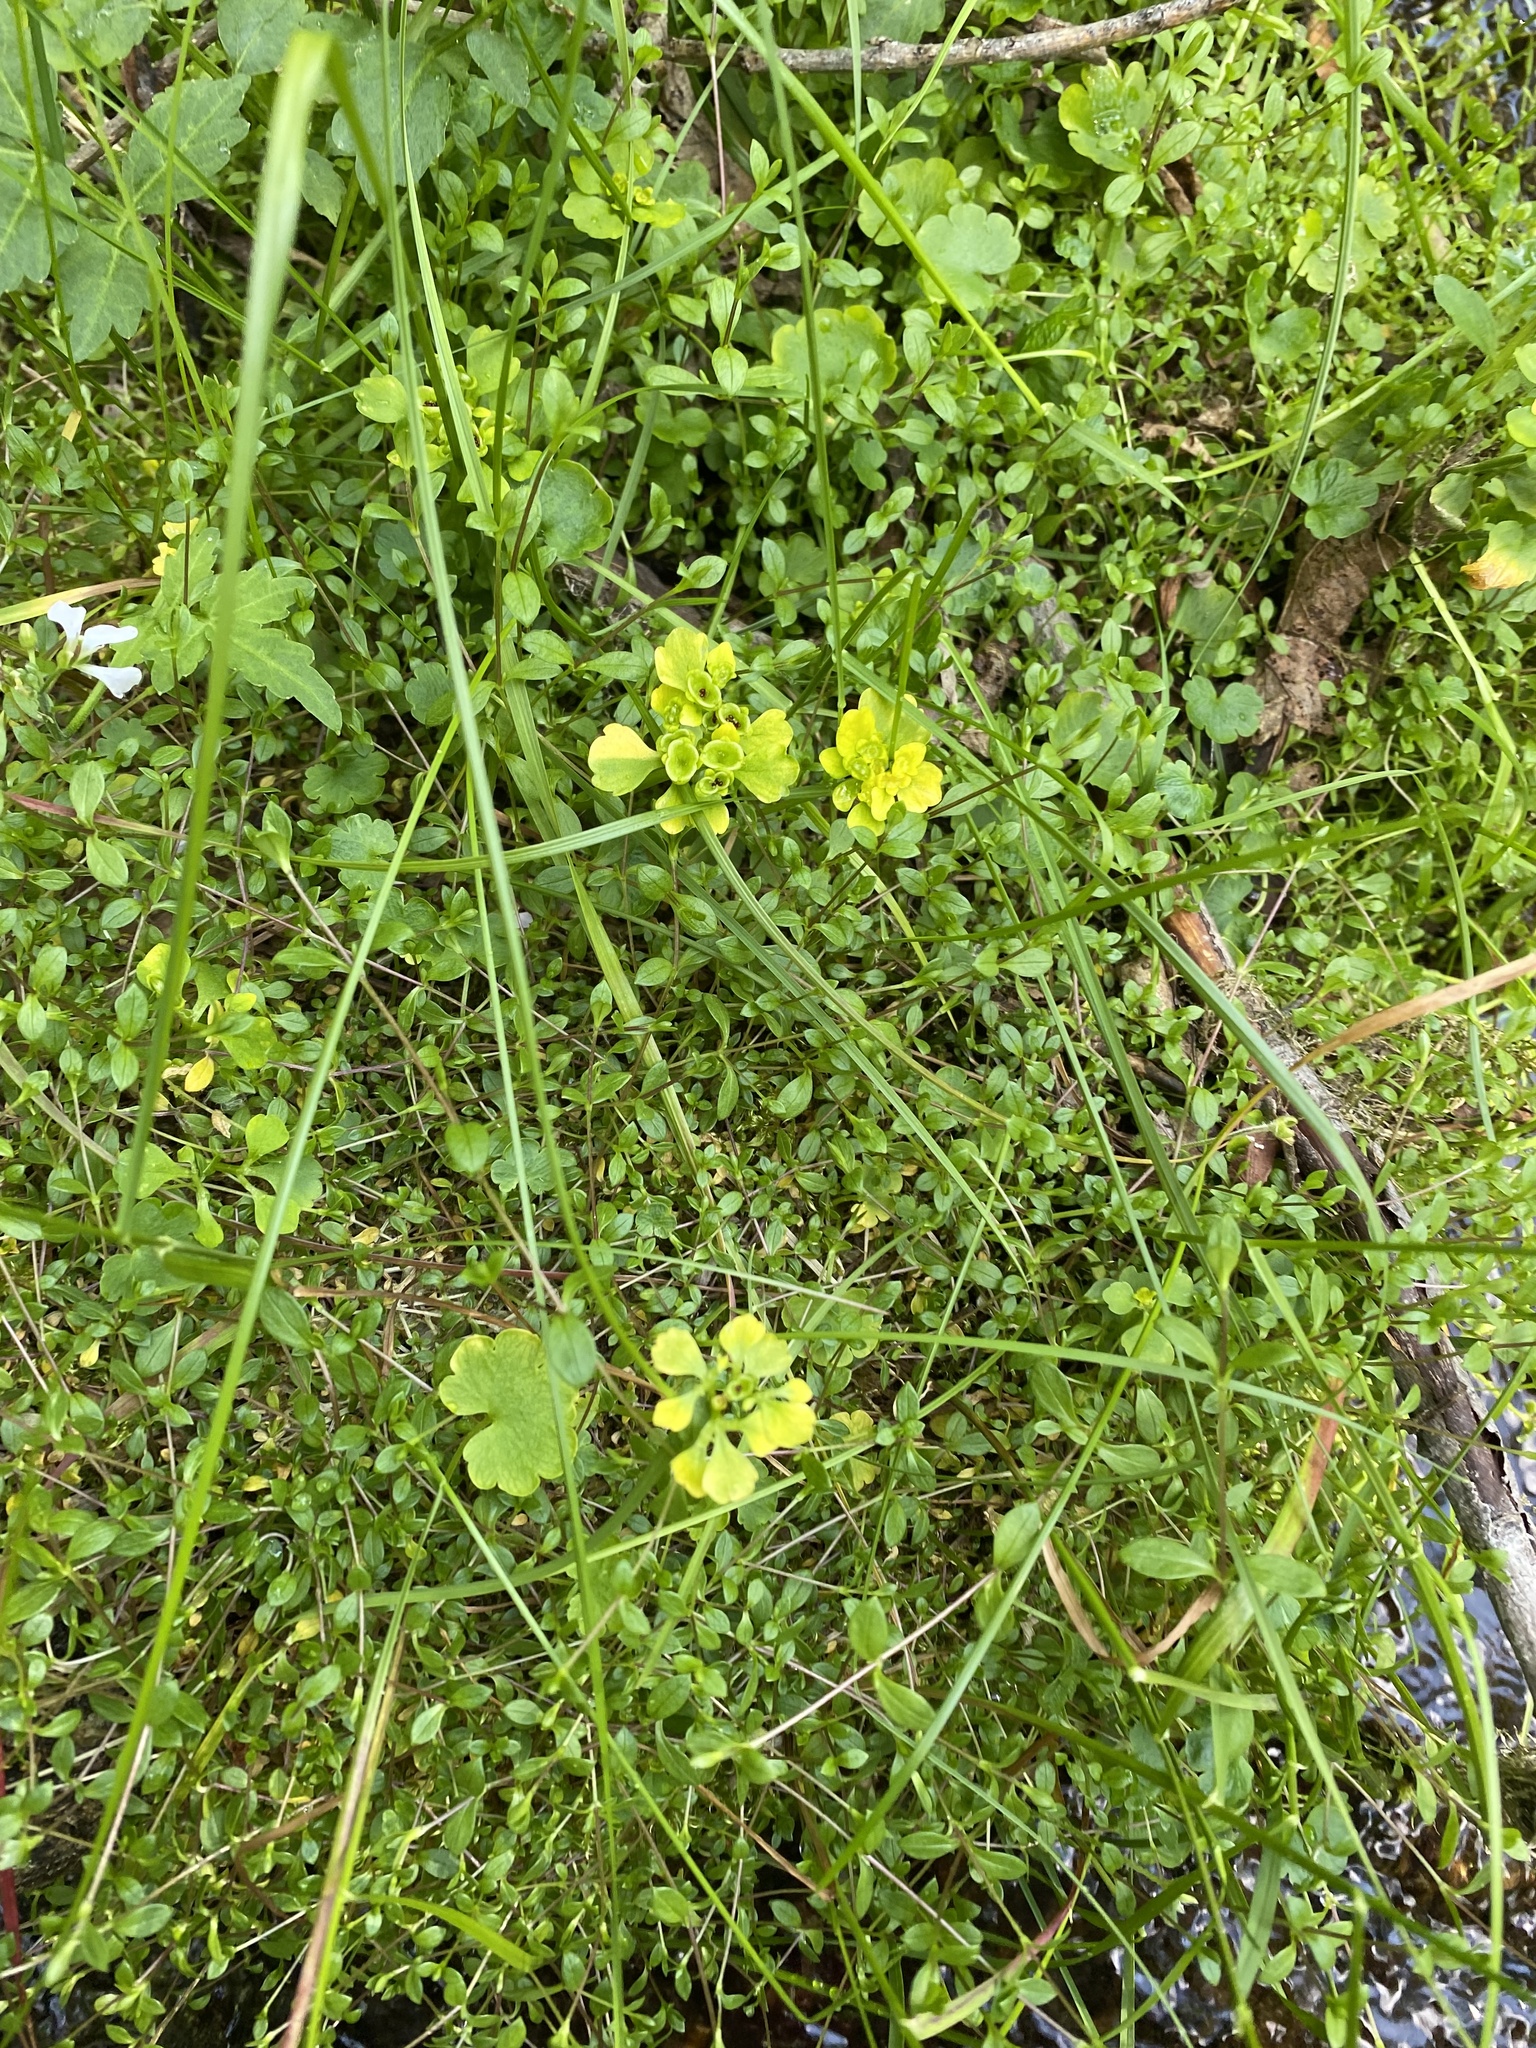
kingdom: Plantae
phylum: Tracheophyta
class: Magnoliopsida
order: Saxifragales
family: Saxifragaceae
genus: Chrysosplenium
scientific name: Chrysosplenium sibiricum
